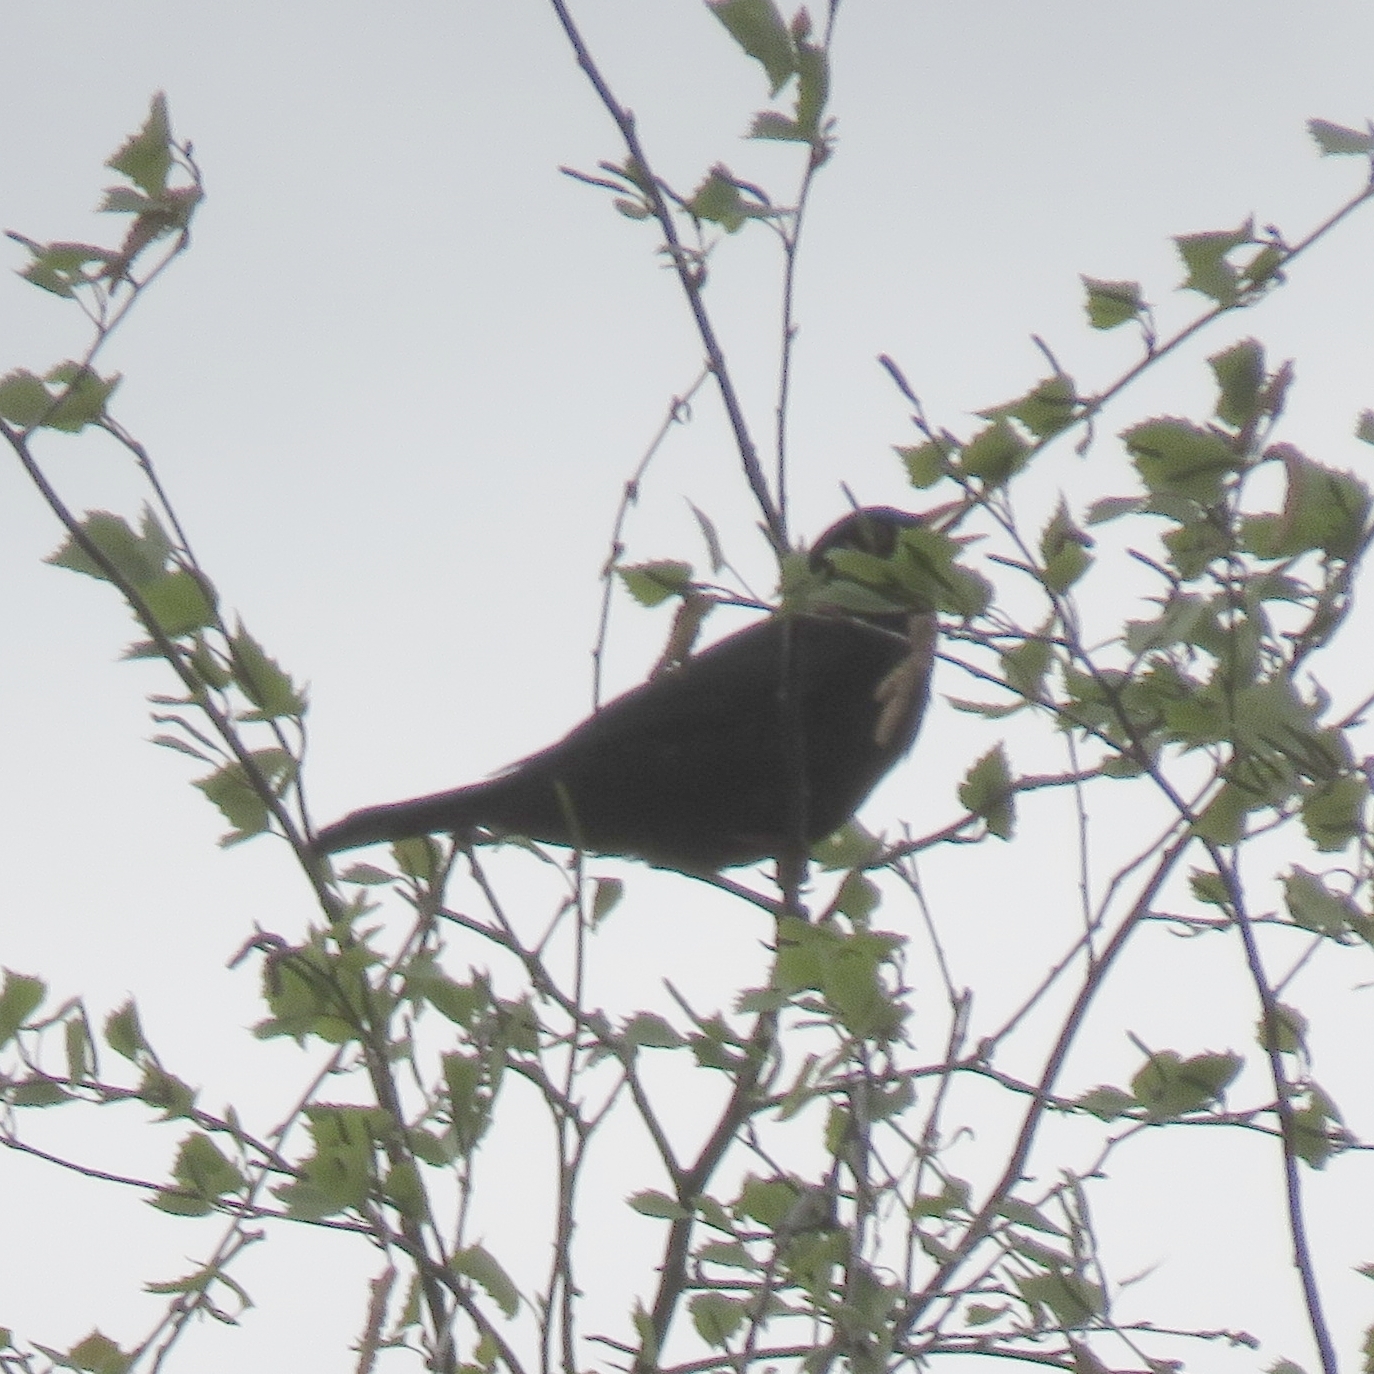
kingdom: Animalia
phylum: Chordata
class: Aves
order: Passeriformes
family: Turdidae
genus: Turdus
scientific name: Turdus merula
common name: Common blackbird
